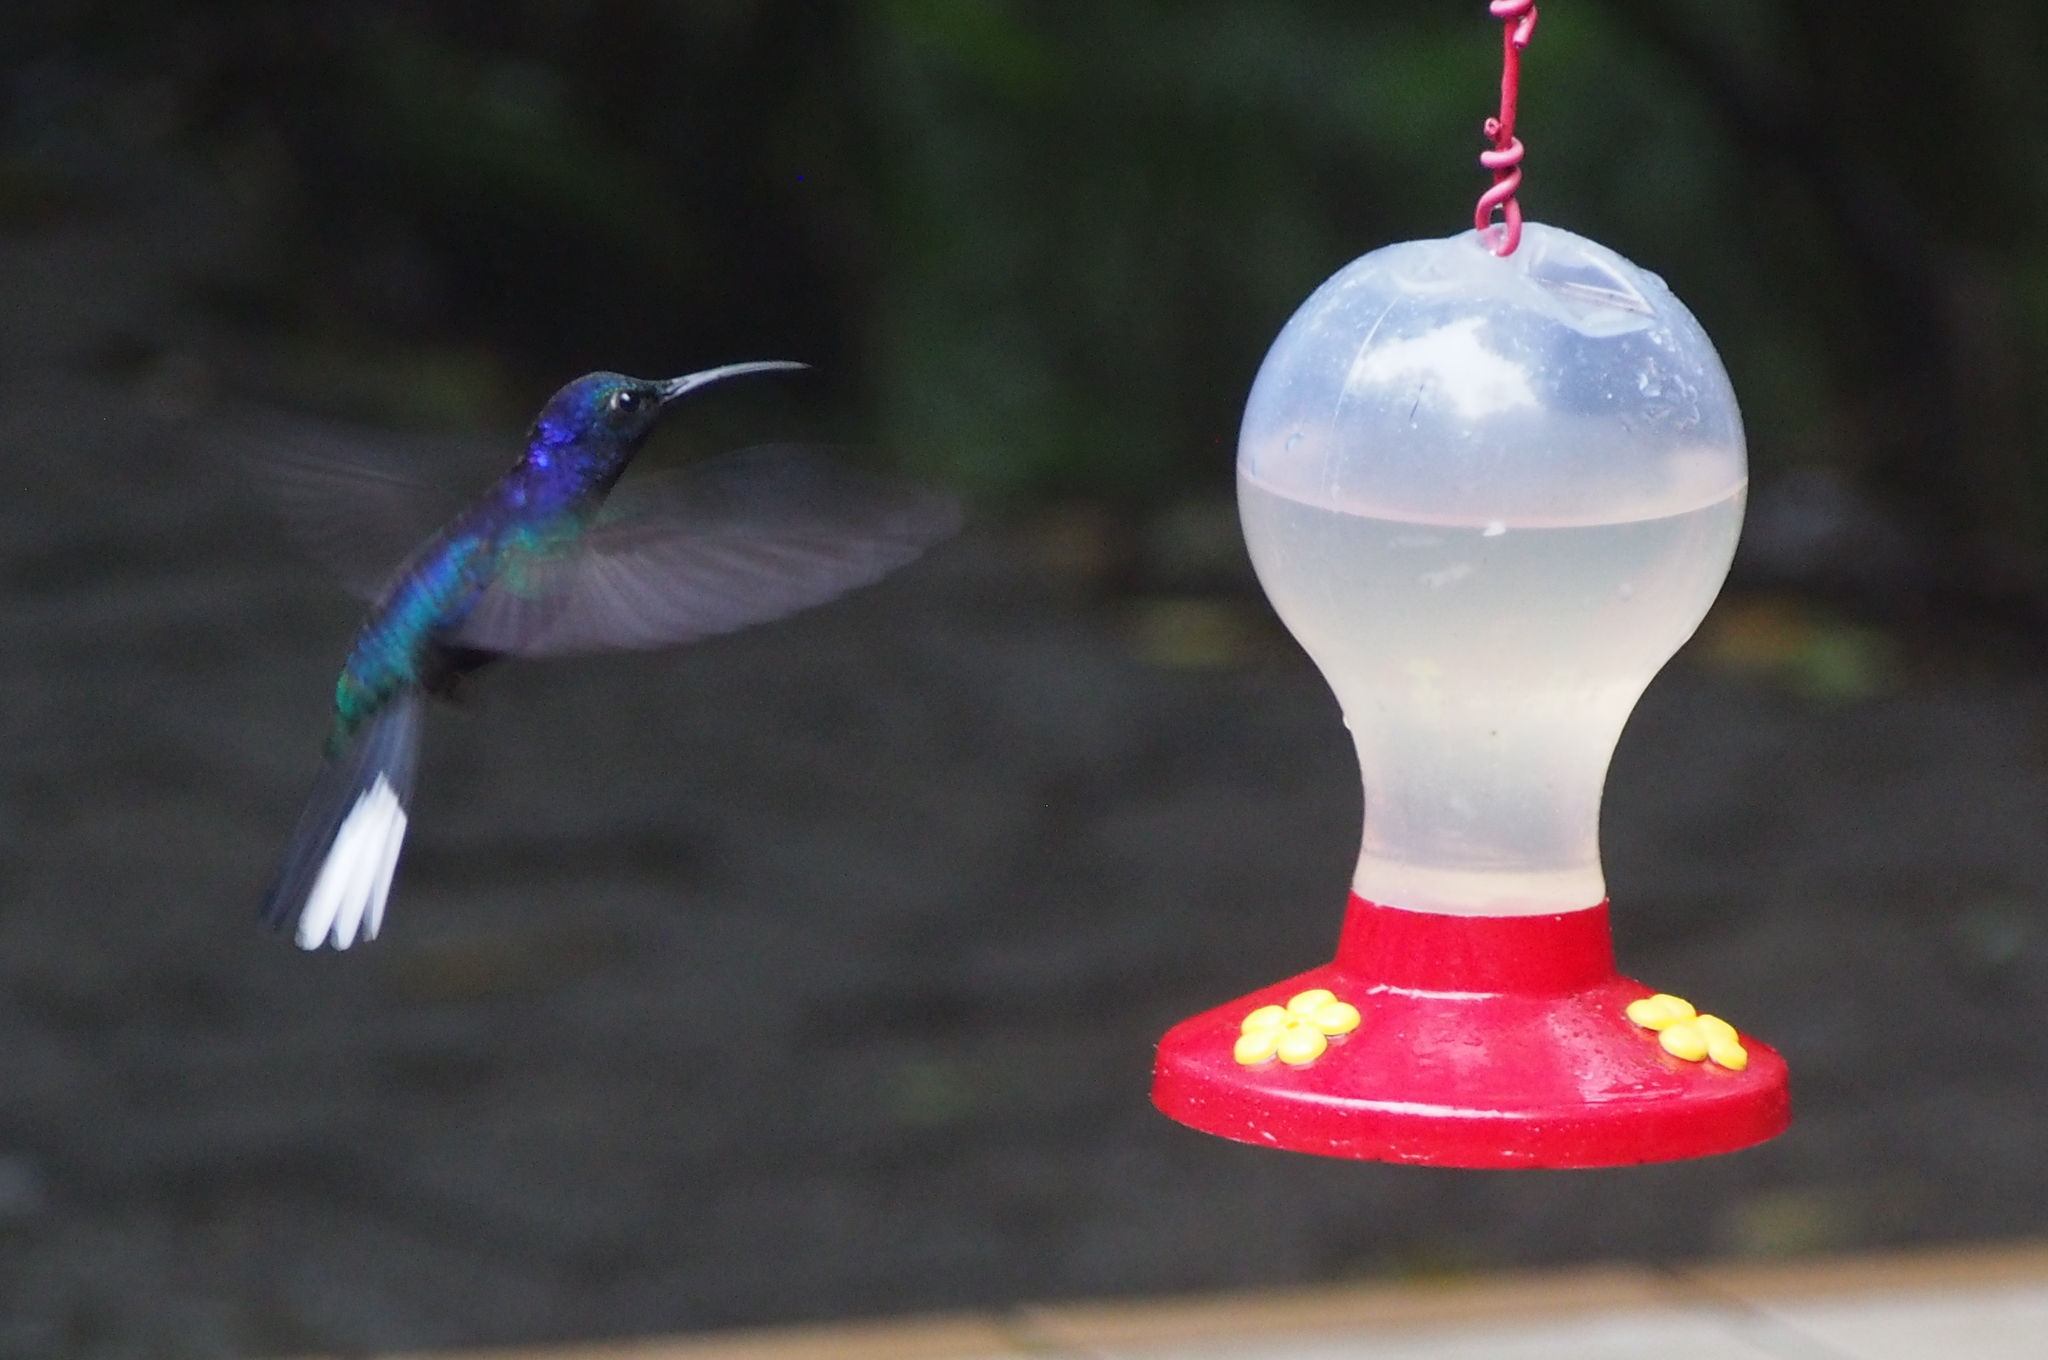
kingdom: Animalia
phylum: Chordata
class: Aves
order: Apodiformes
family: Trochilidae
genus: Campylopterus
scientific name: Campylopterus hemileucurus
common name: Violet sabrewing
